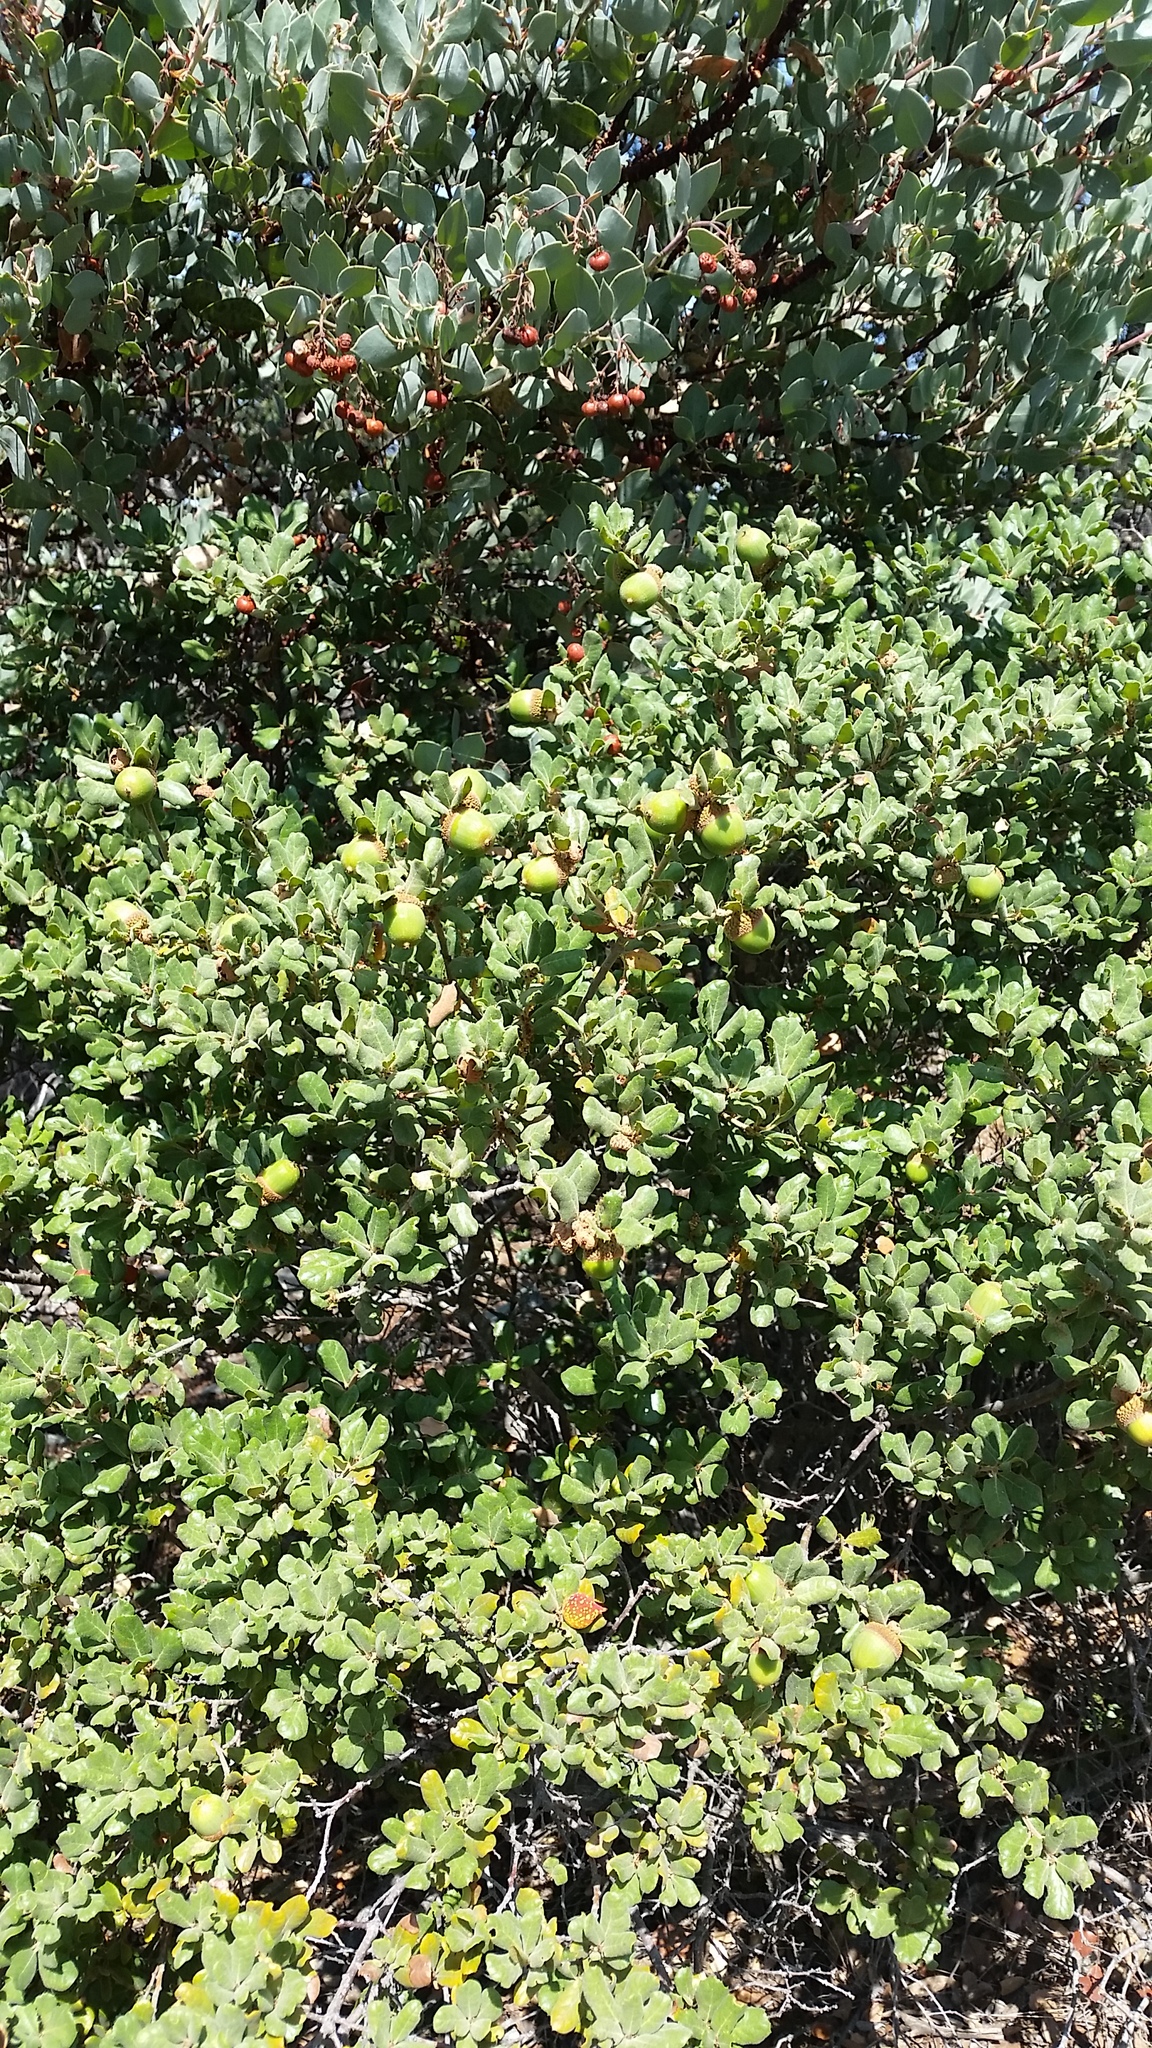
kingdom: Plantae
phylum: Tracheophyta
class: Magnoliopsida
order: Fagales
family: Fagaceae
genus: Quercus
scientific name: Quercus durata
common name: Leather oak
